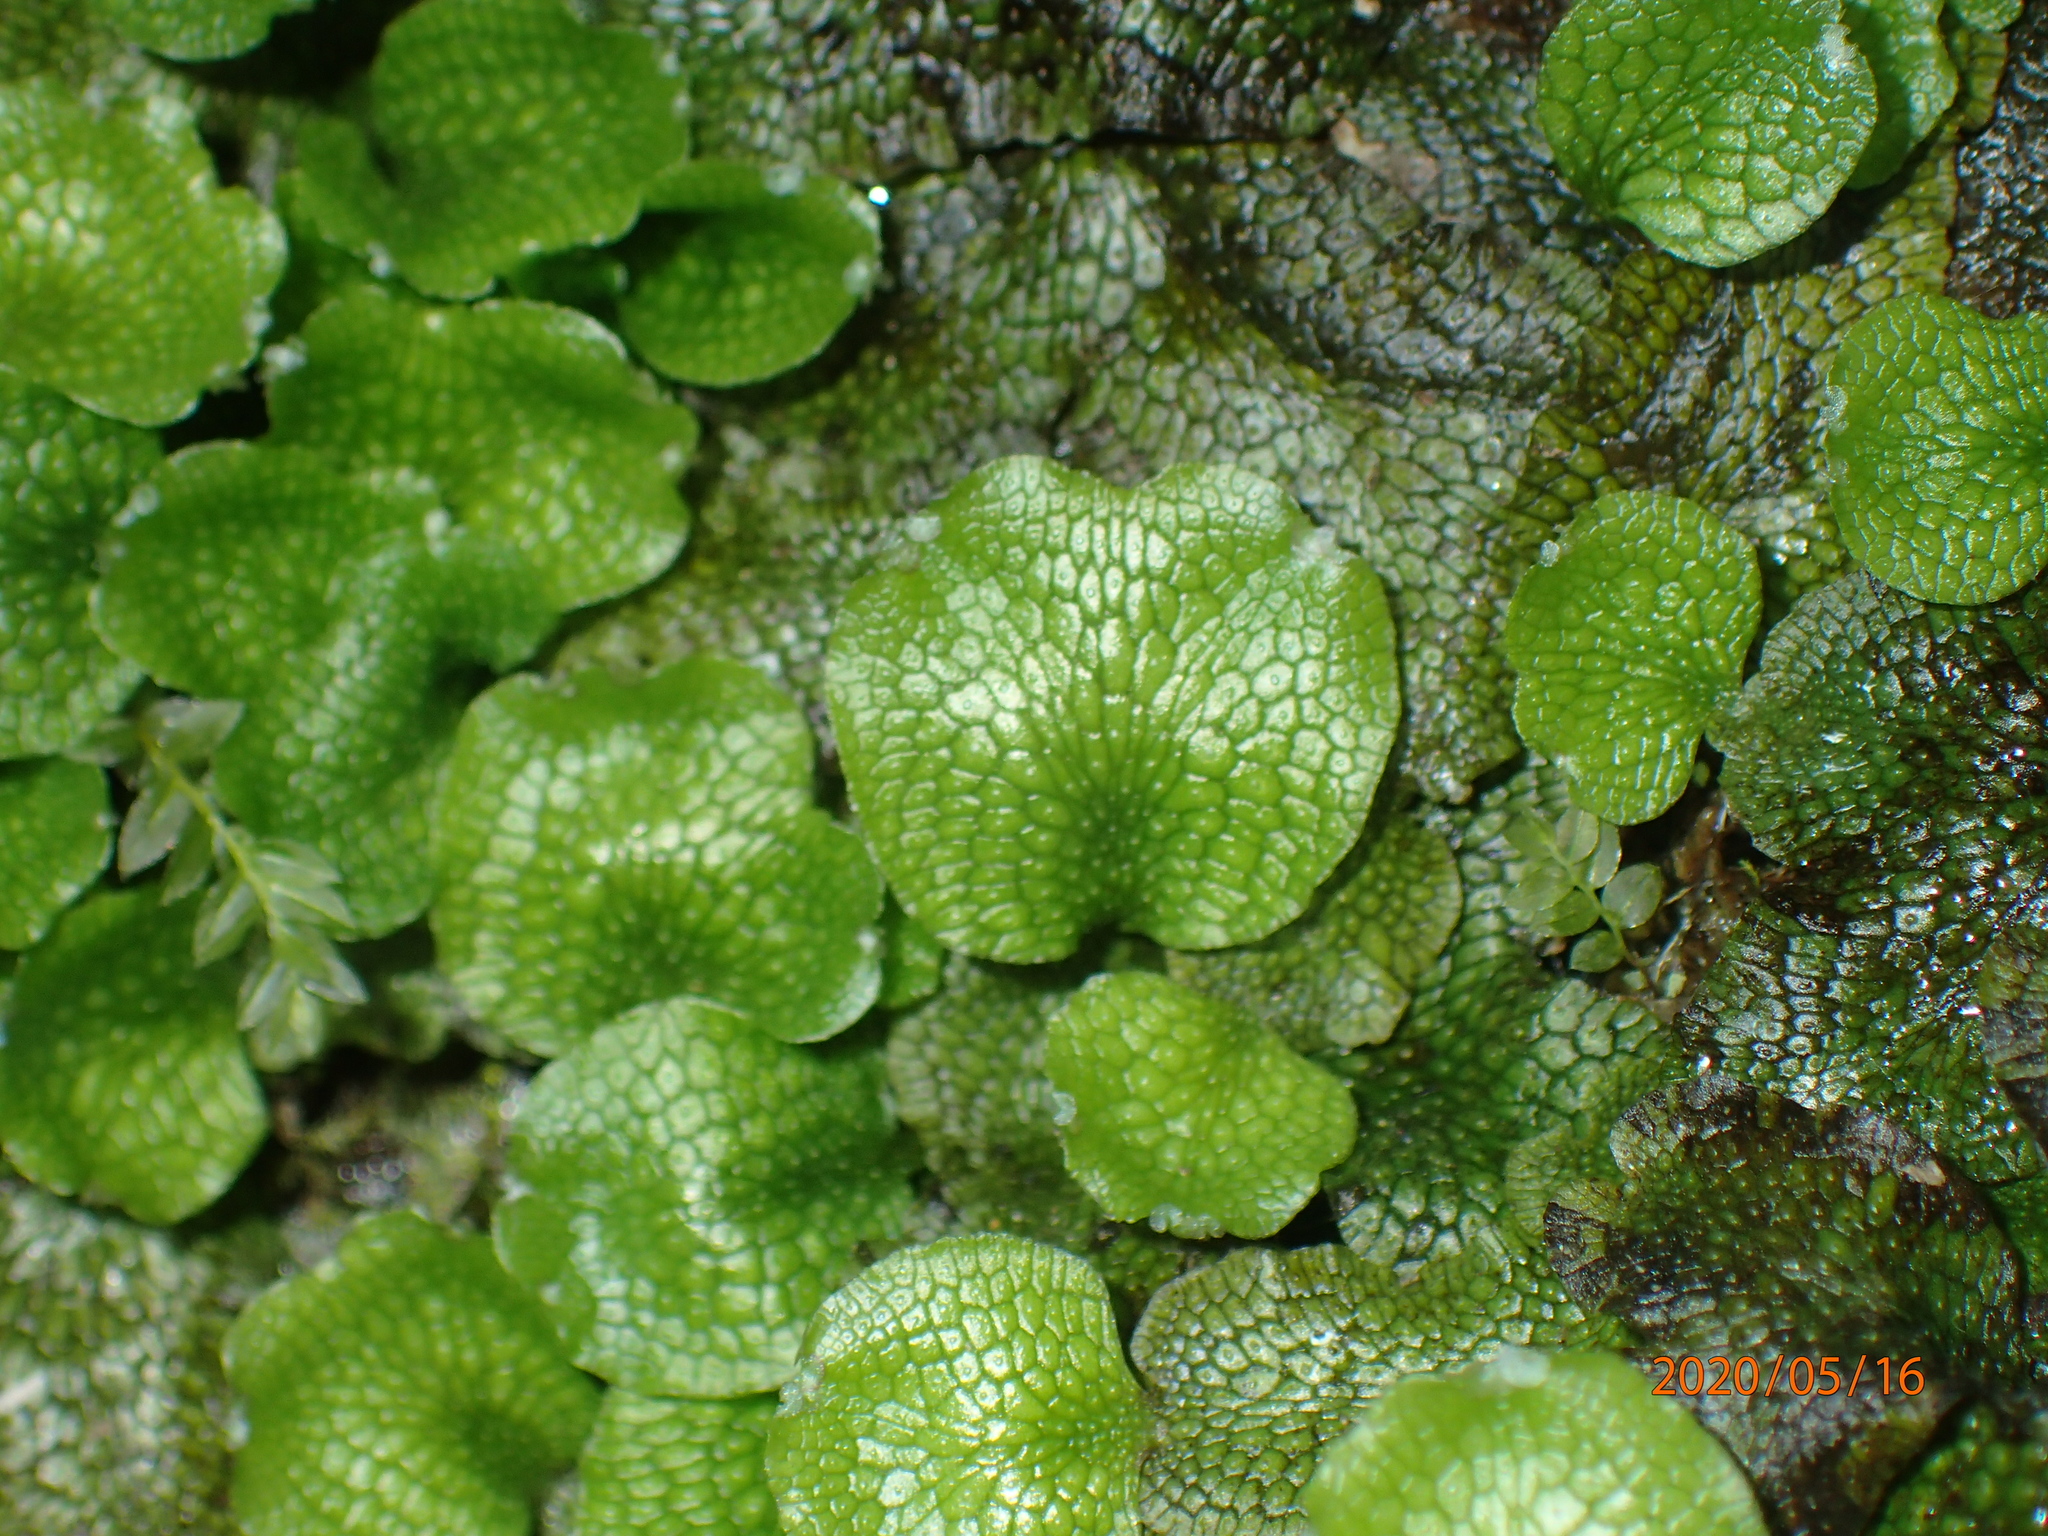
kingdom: Plantae
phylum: Marchantiophyta
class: Marchantiopsida
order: Marchantiales
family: Conocephalaceae
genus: Conocephalum
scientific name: Conocephalum salebrosum
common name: Cat-tongue liverwort
